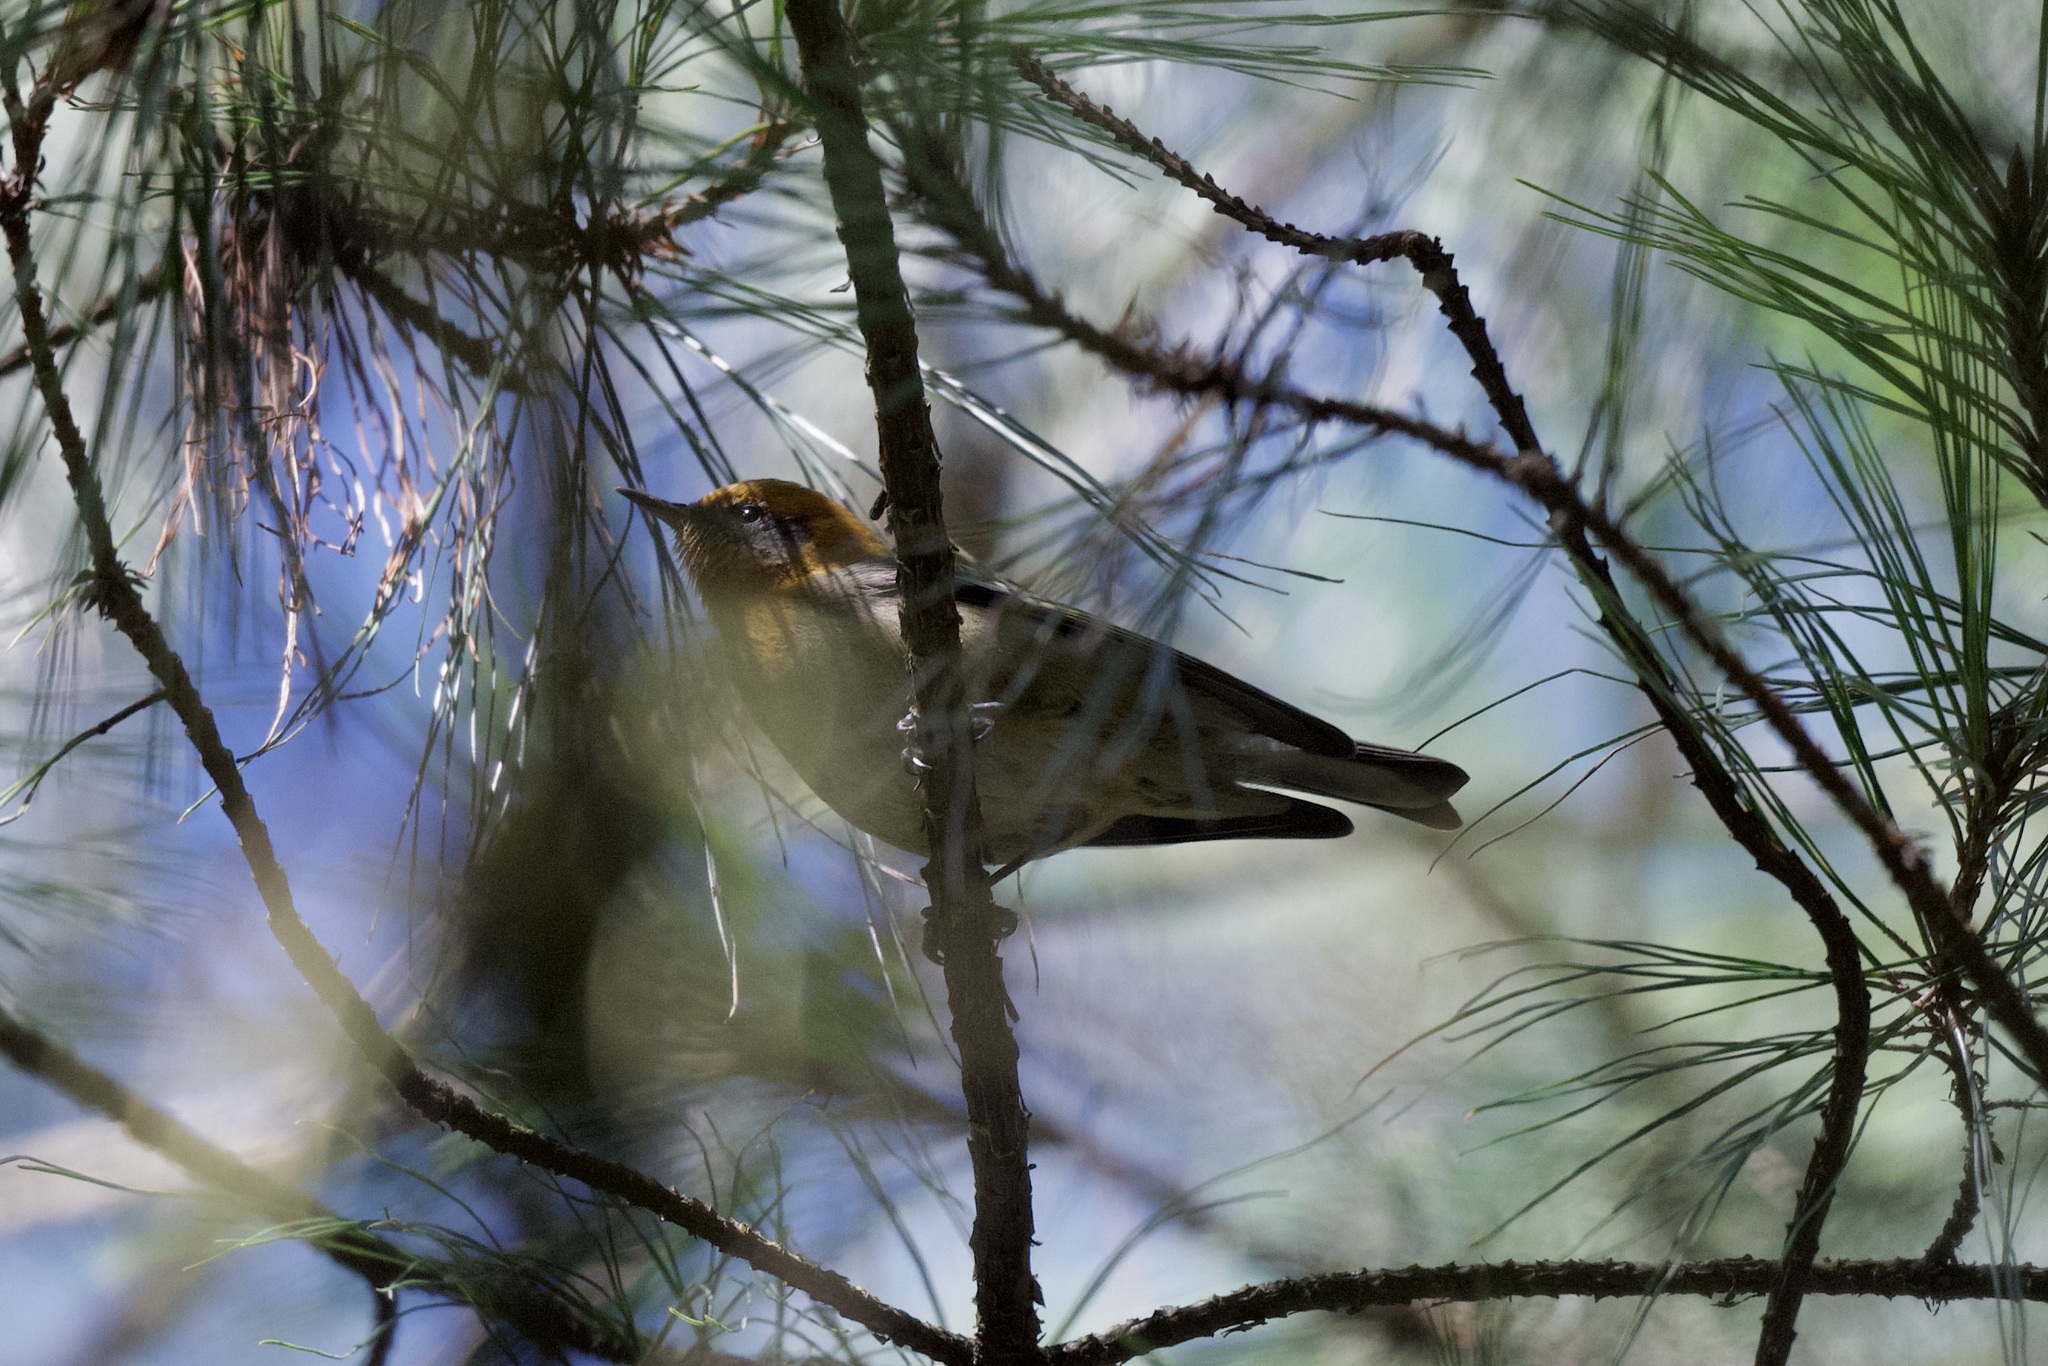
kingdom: Animalia
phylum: Chordata
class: Aves
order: Passeriformes
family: Peucedramidae
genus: Peucedramus
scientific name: Peucedramus taeniatus
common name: Olive warbler
